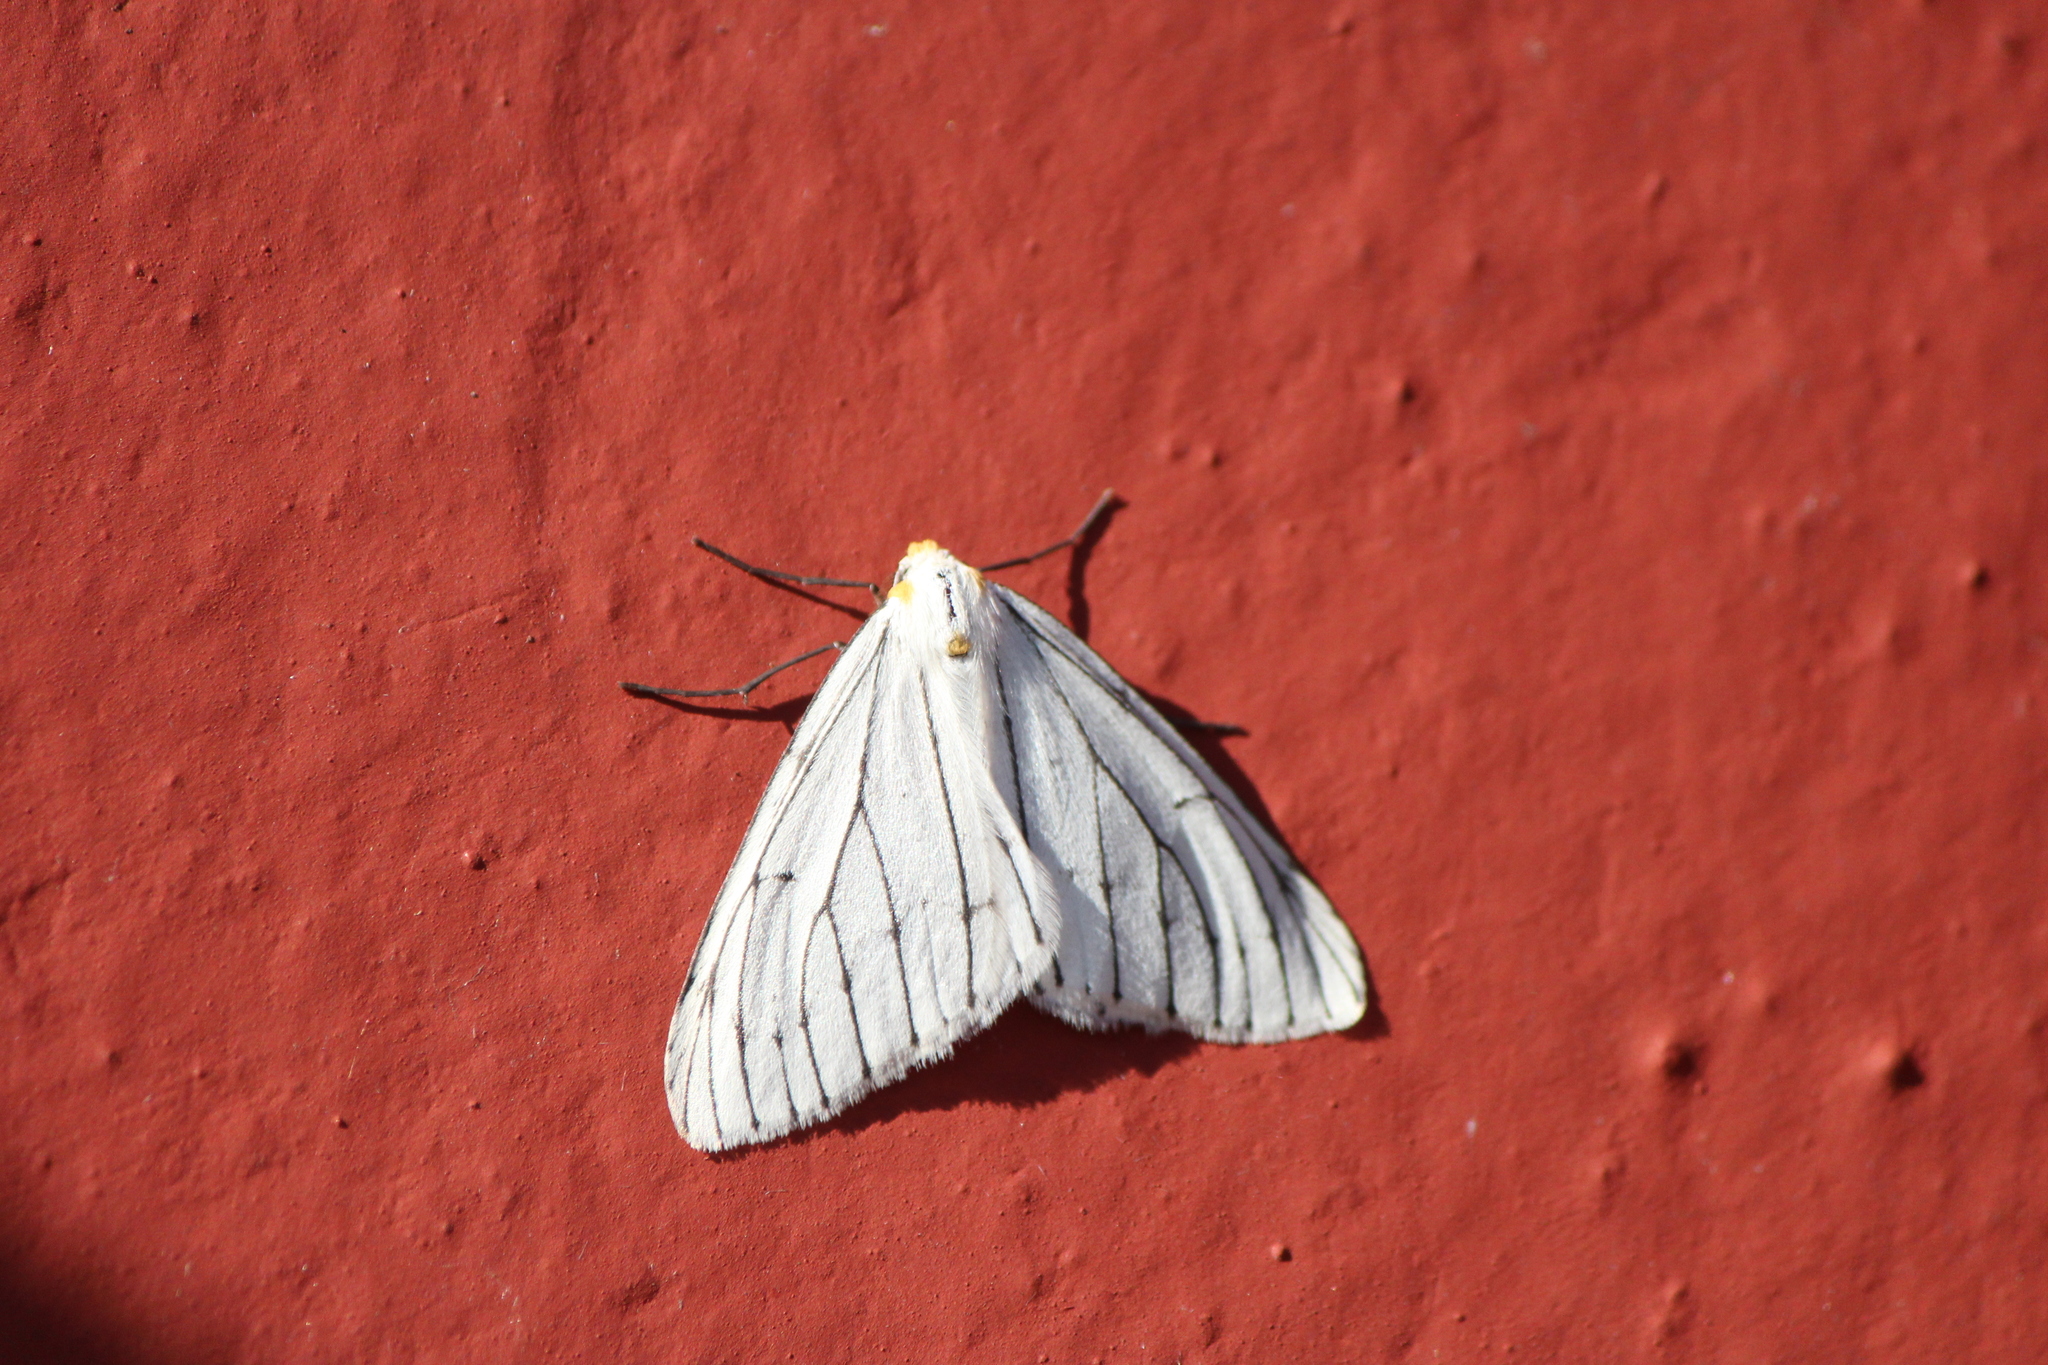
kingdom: Animalia
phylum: Arthropoda
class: Insecta
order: Lepidoptera
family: Geometridae
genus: Neuromelia
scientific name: Neuromelia selectata
